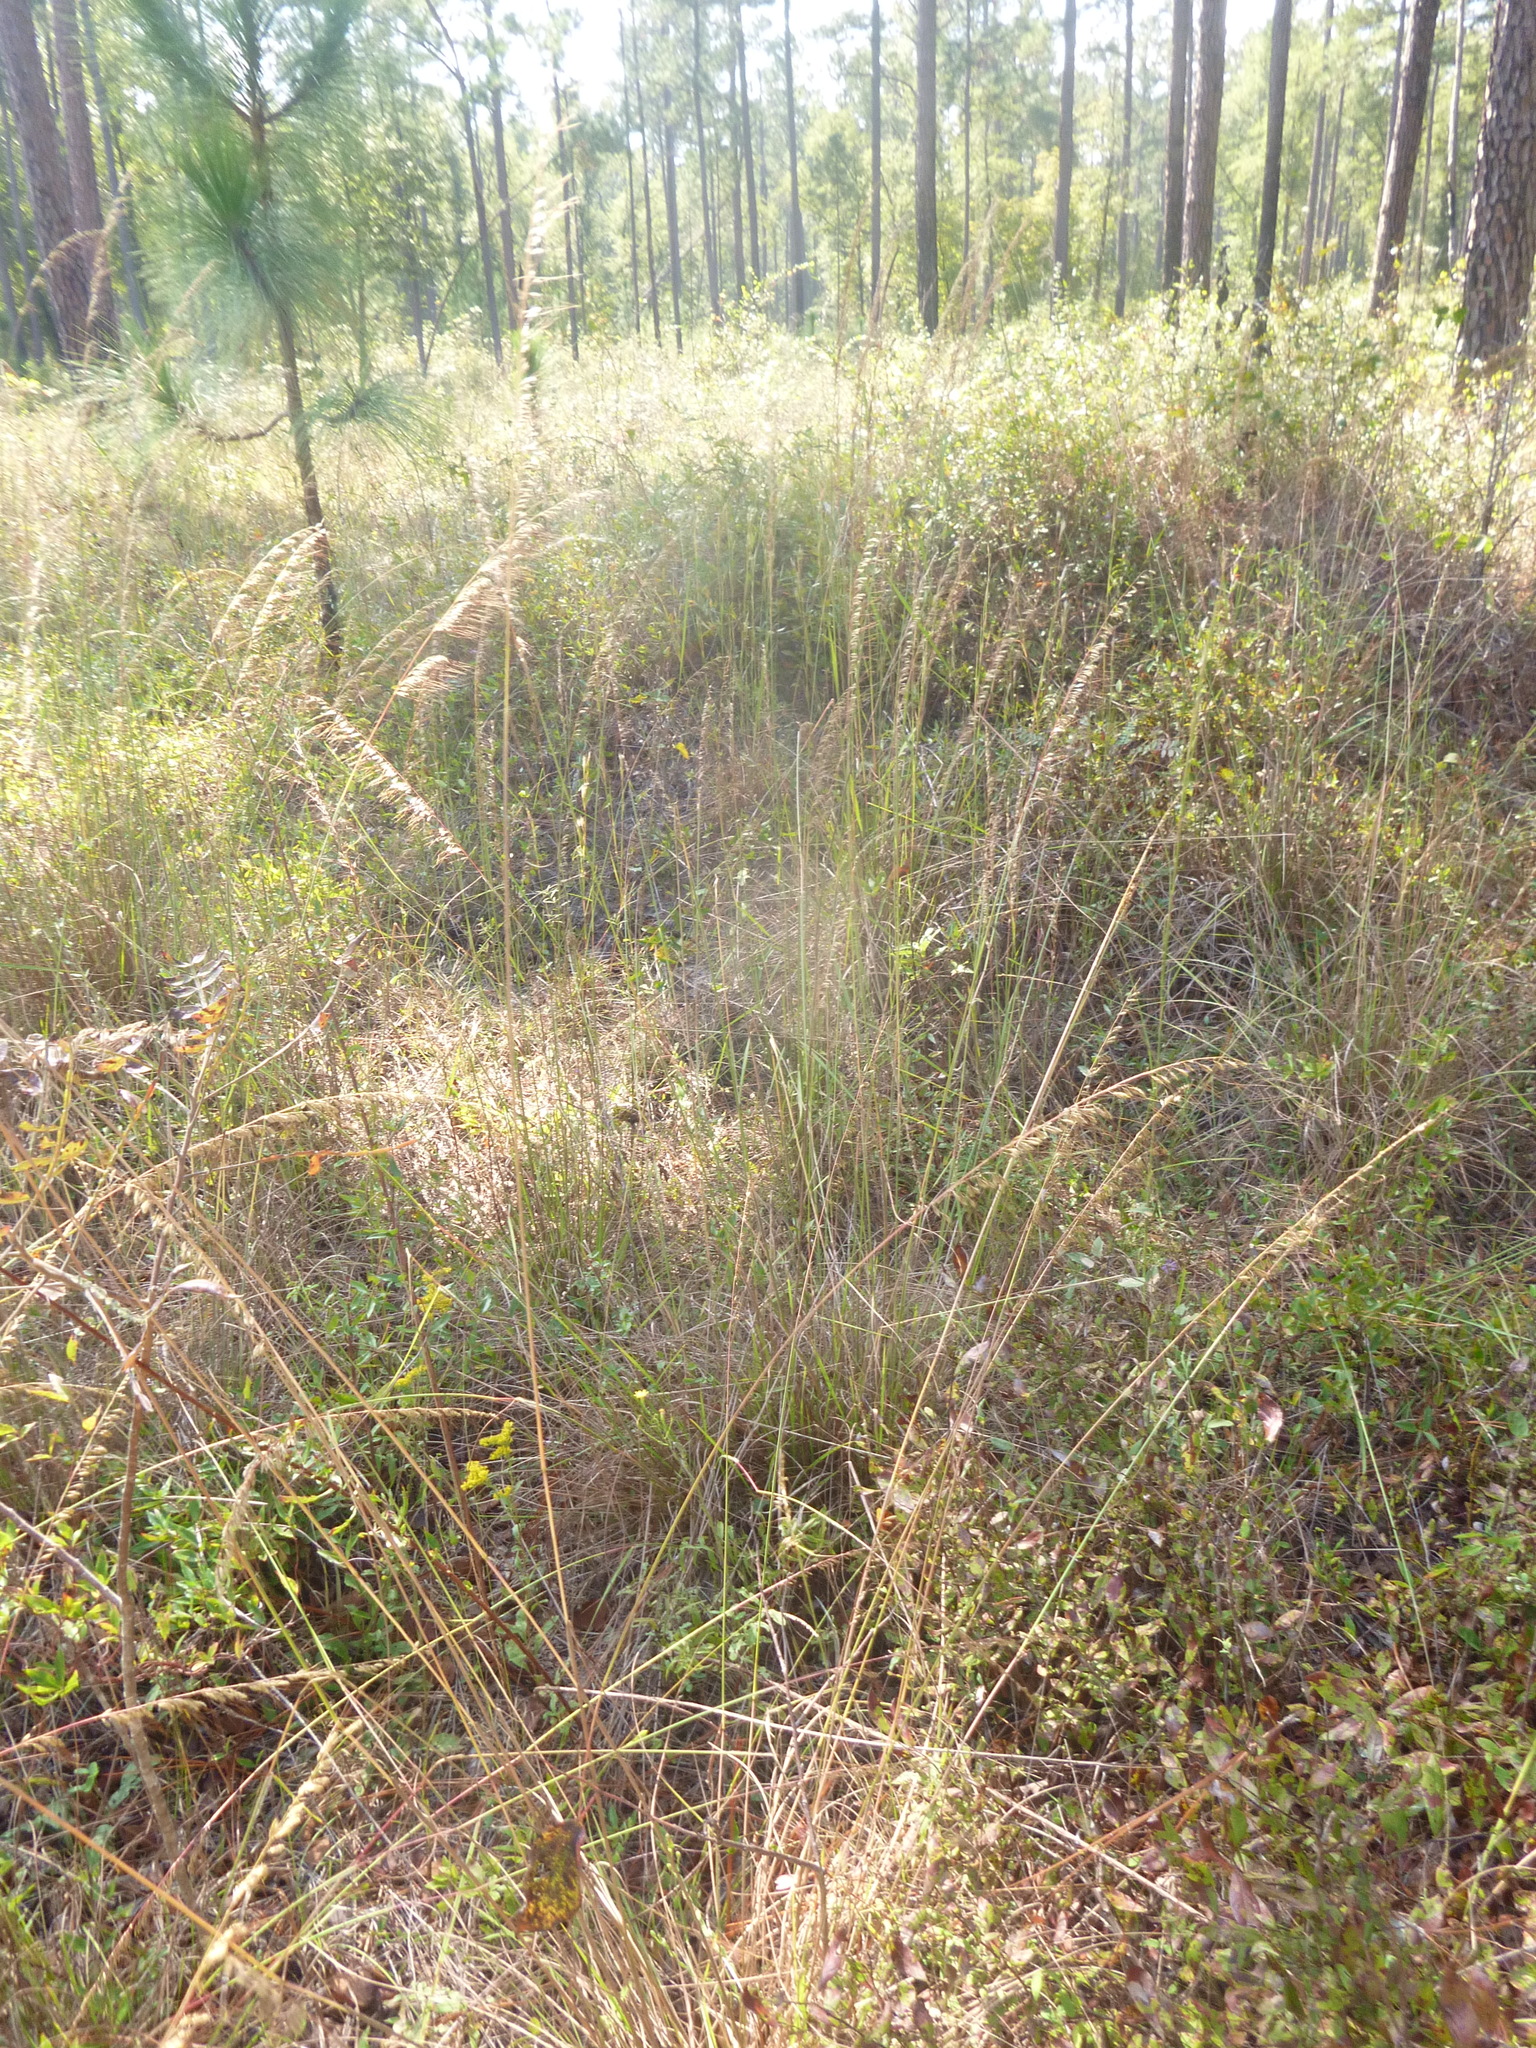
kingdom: Plantae
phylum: Tracheophyta
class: Liliopsida
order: Poales
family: Poaceae
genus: Sorghastrum
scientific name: Sorghastrum secundum
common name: Lopsided indian grass
